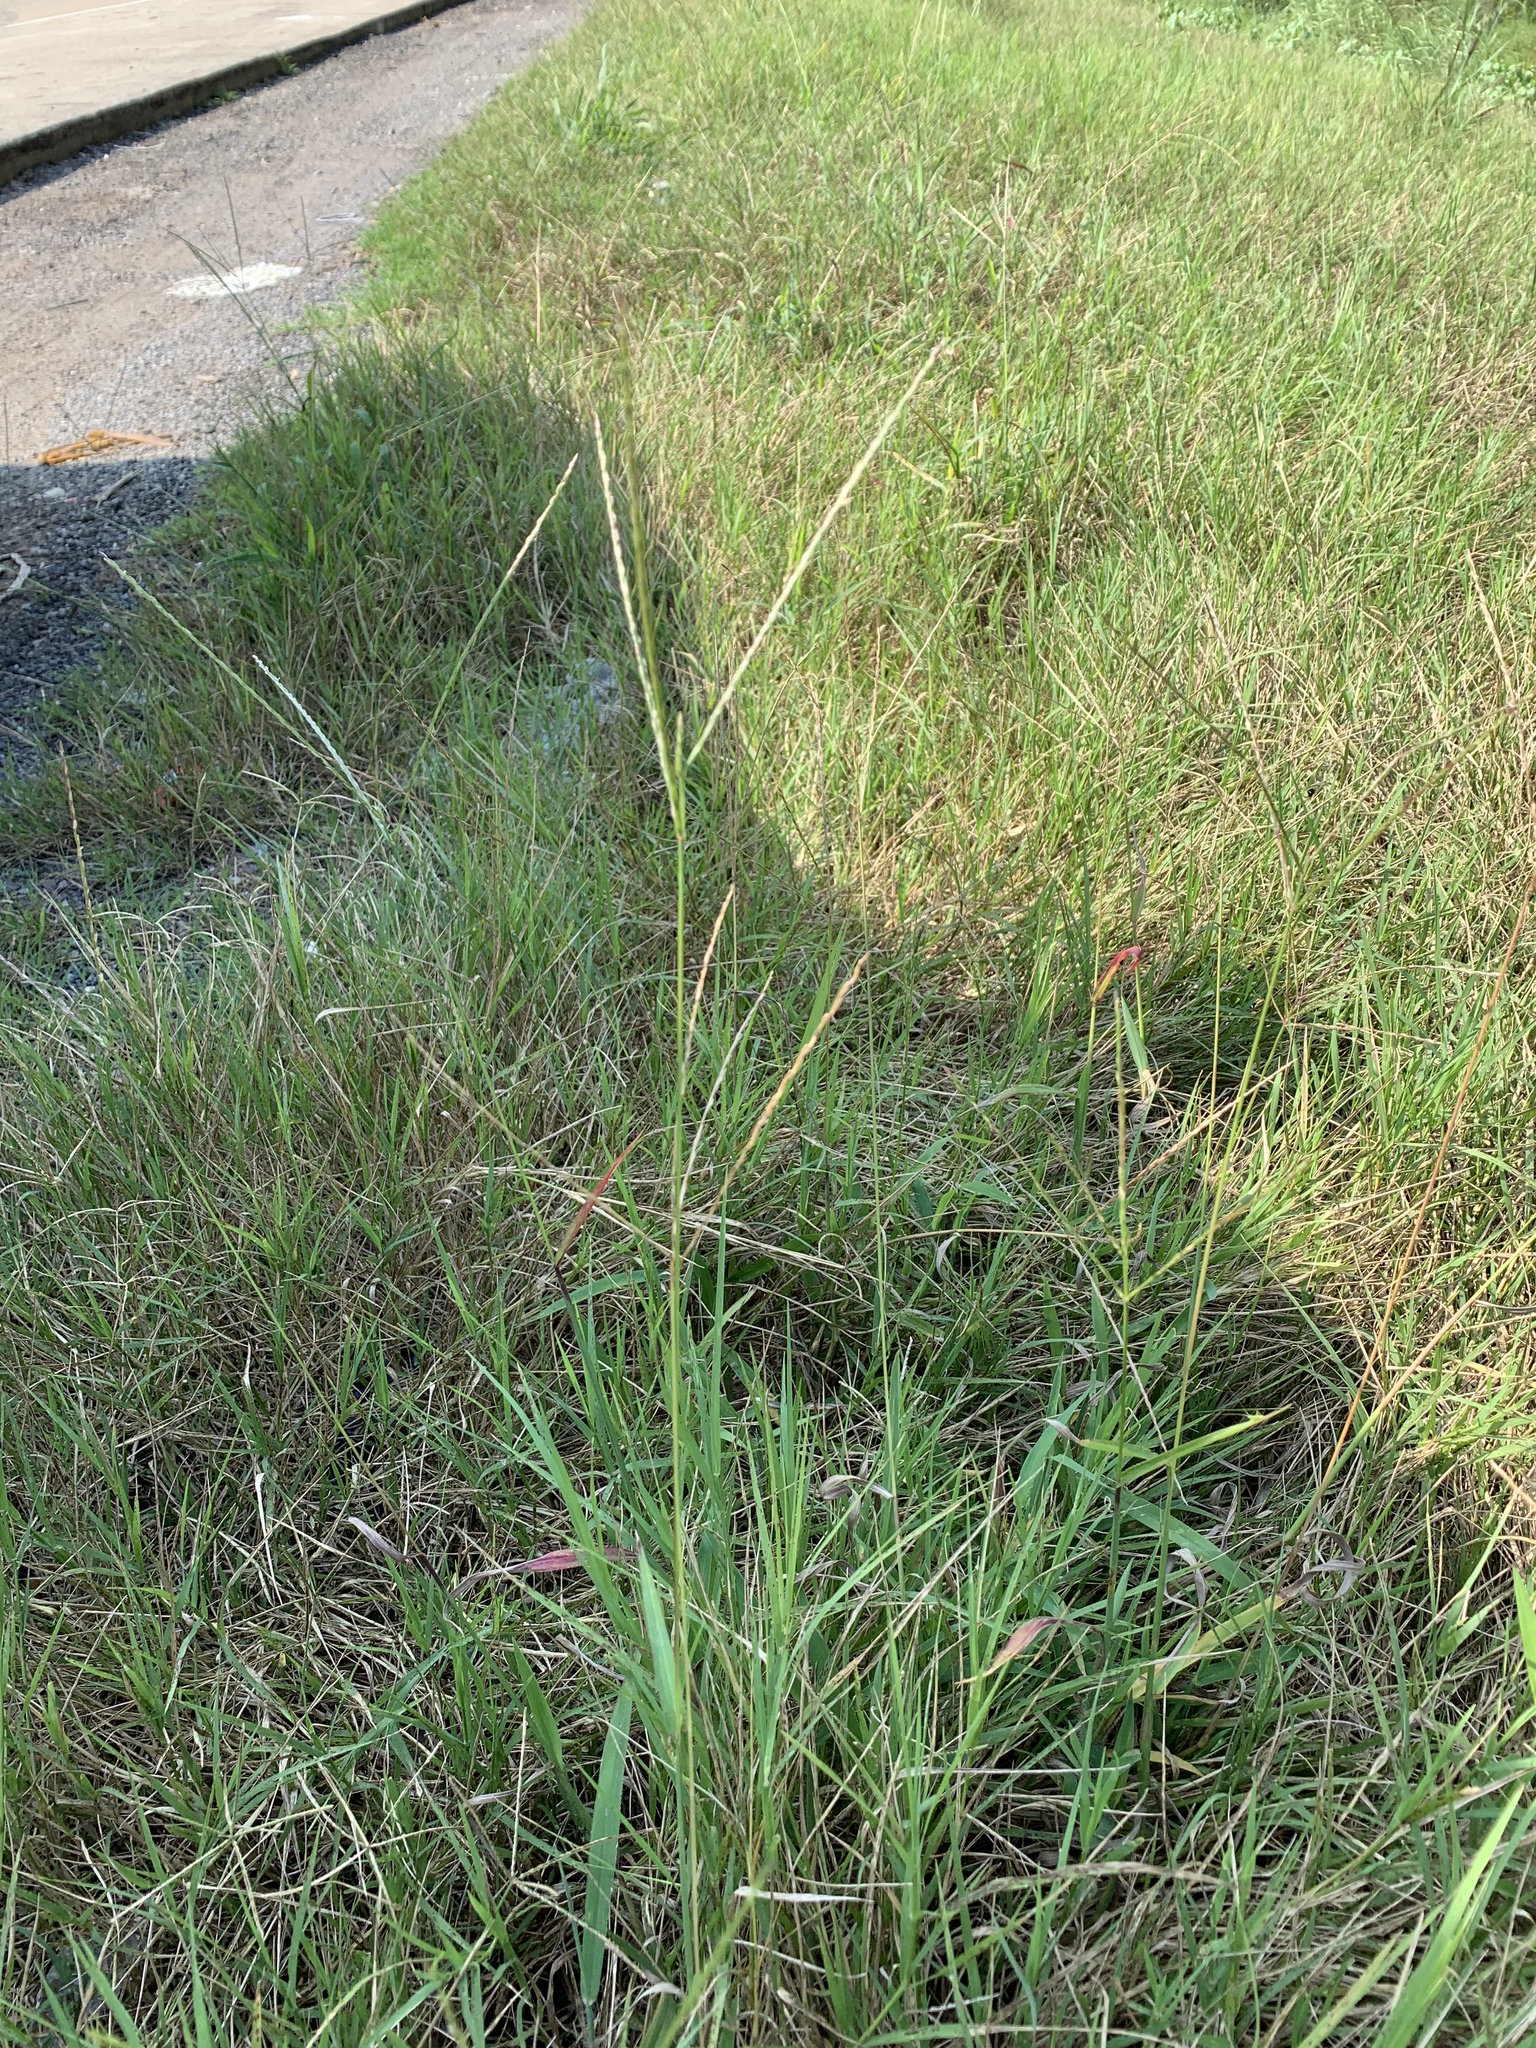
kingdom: Plantae
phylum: Tracheophyta
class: Liliopsida
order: Poales
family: Poaceae
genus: Axonopus
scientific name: Axonopus fissifolius
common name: Common carpetgrass
